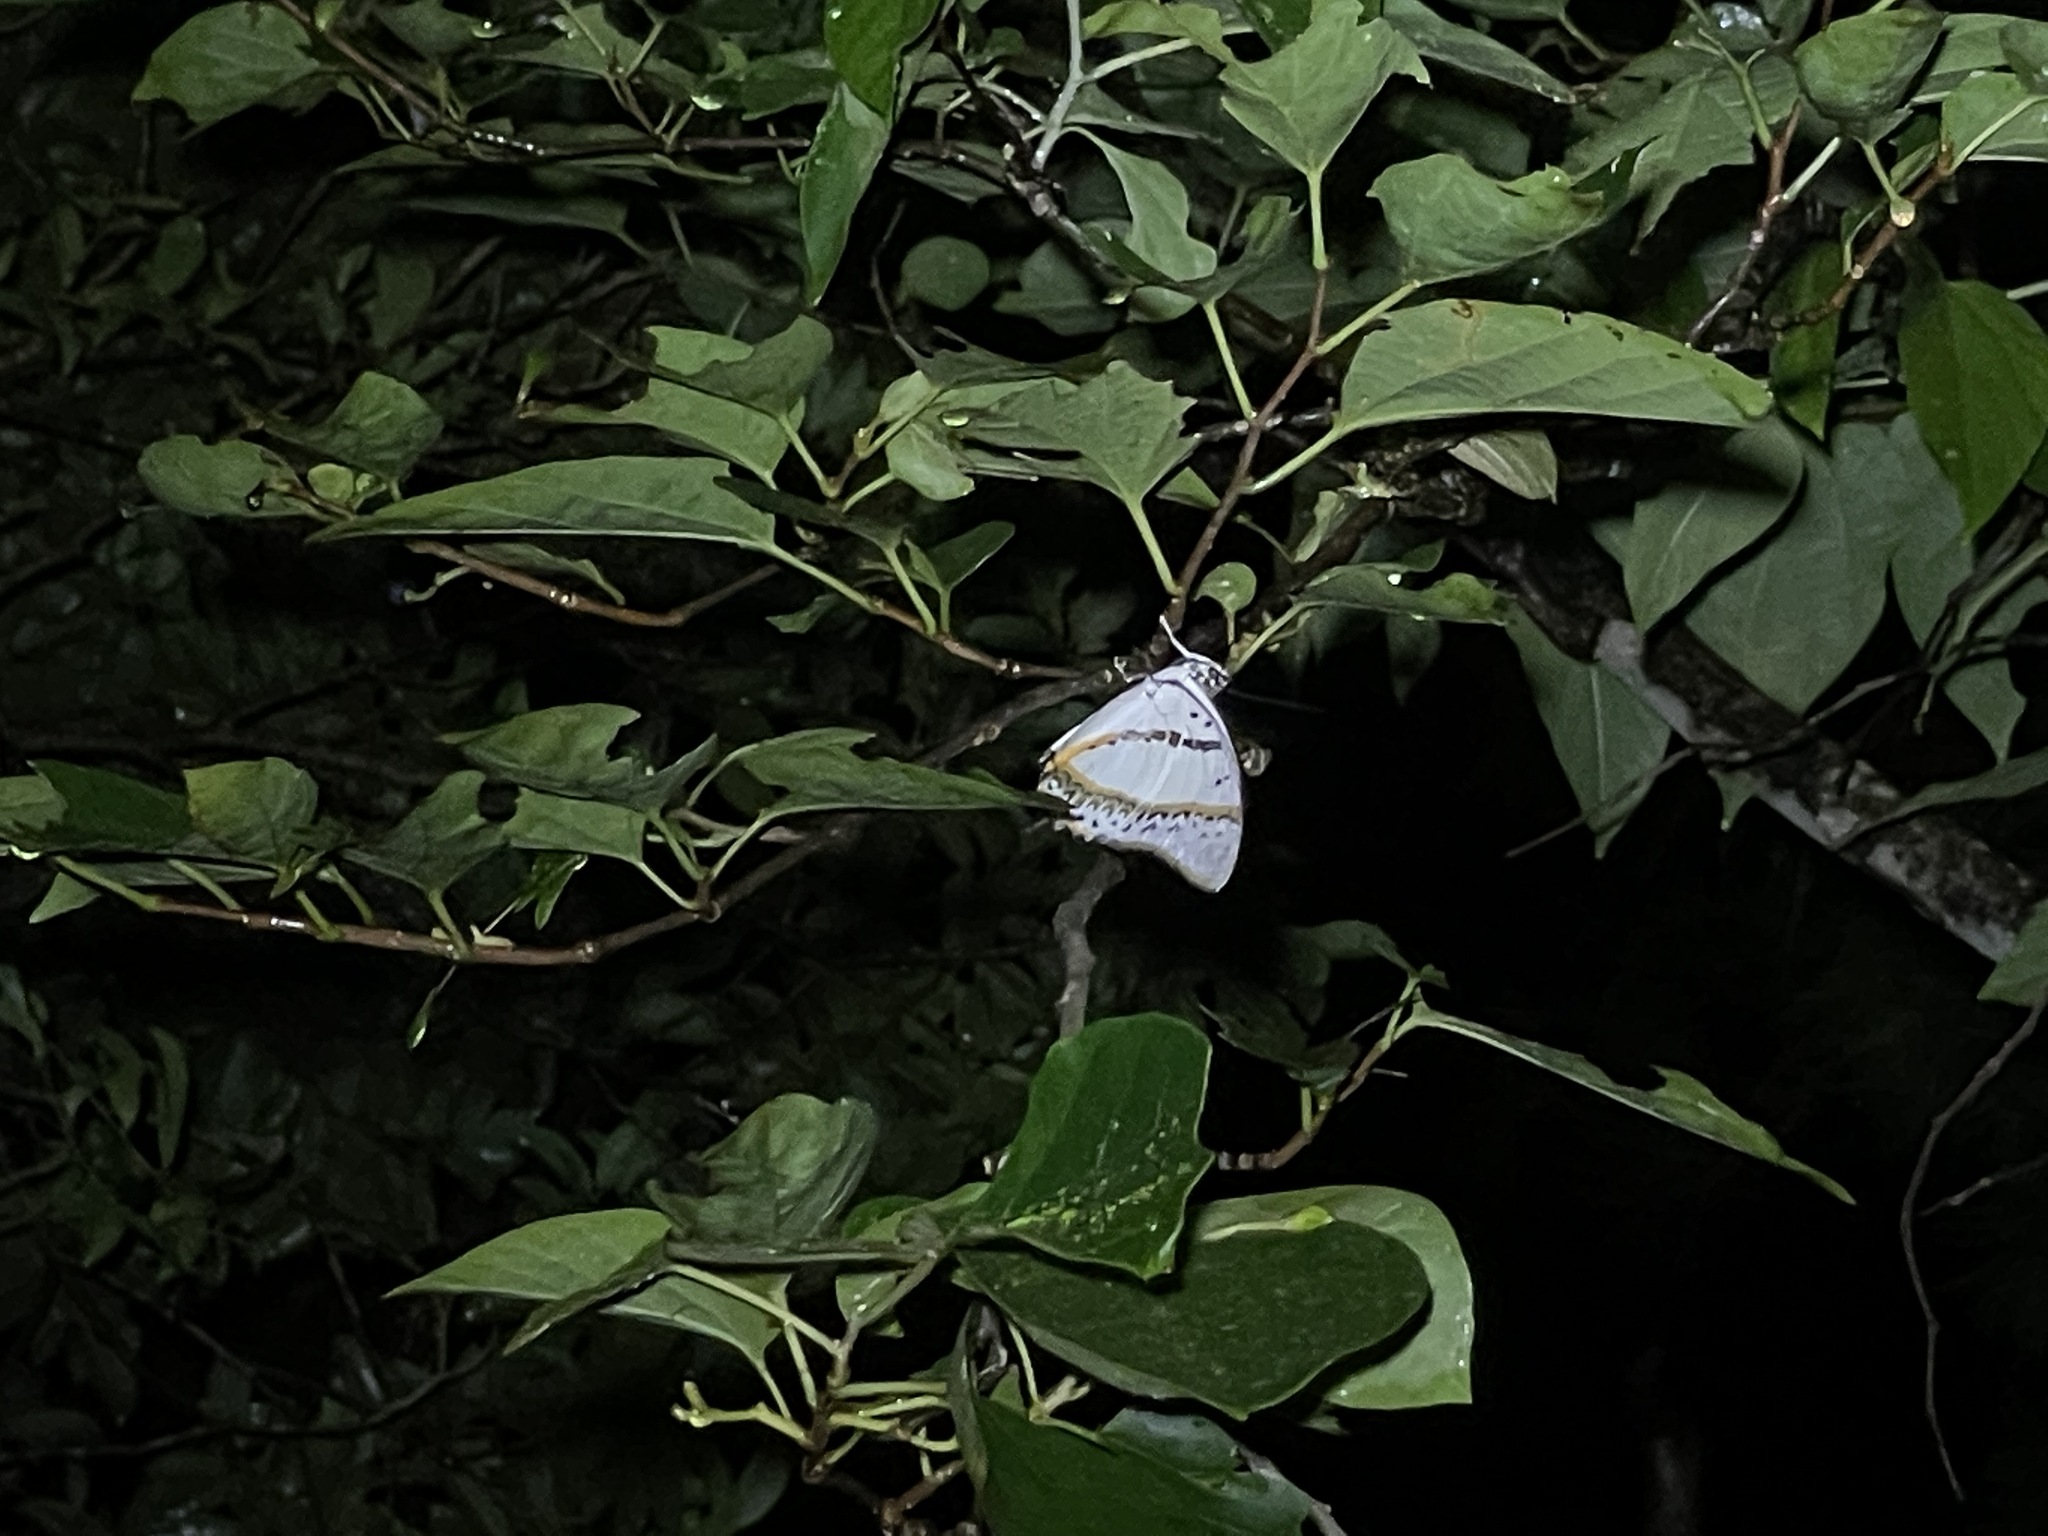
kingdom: Animalia
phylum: Arthropoda
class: Insecta
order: Lepidoptera
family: Nymphalidae
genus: Polyura
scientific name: Polyura nepenthes
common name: Shan nawab
